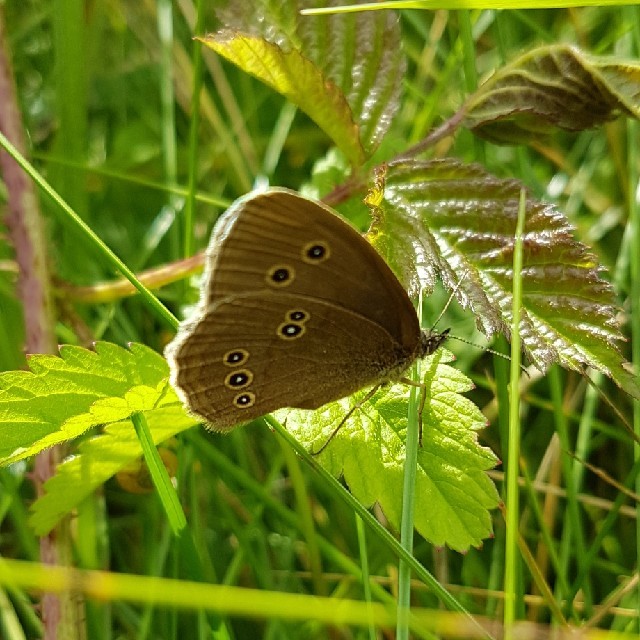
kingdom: Animalia
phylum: Arthropoda
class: Insecta
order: Lepidoptera
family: Nymphalidae
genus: Aphantopus
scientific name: Aphantopus hyperantus
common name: Ringlet
